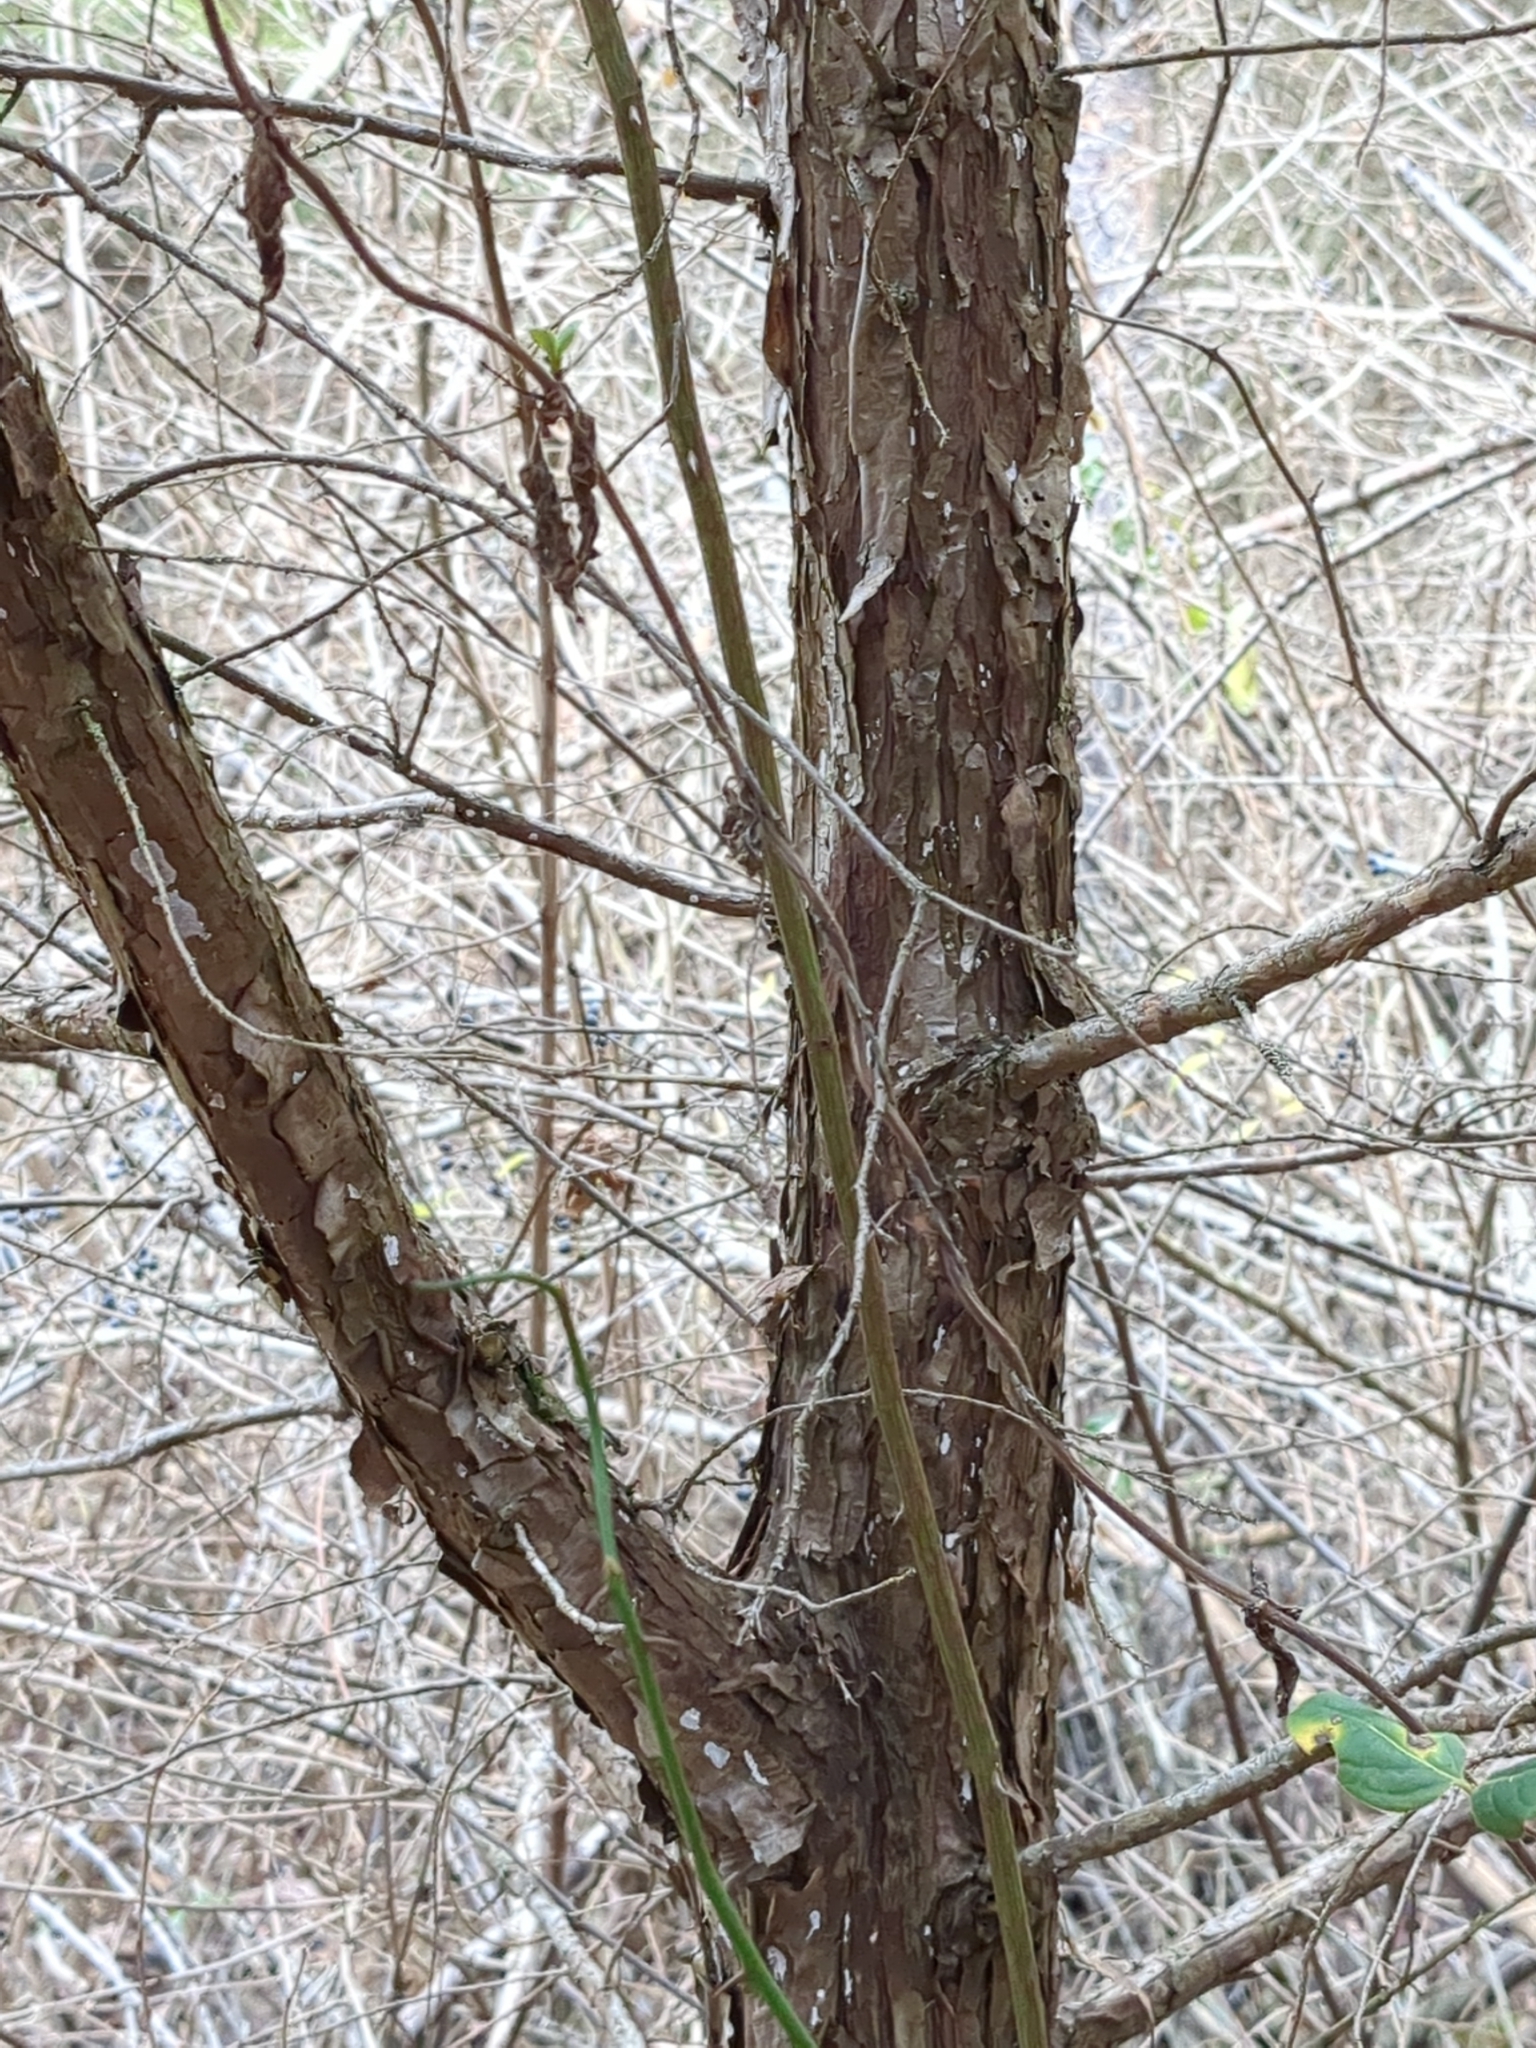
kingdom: Plantae
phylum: Tracheophyta
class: Pinopsida
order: Pinales
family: Cupressaceae
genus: Juniperus
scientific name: Juniperus virginiana
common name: Red juniper
